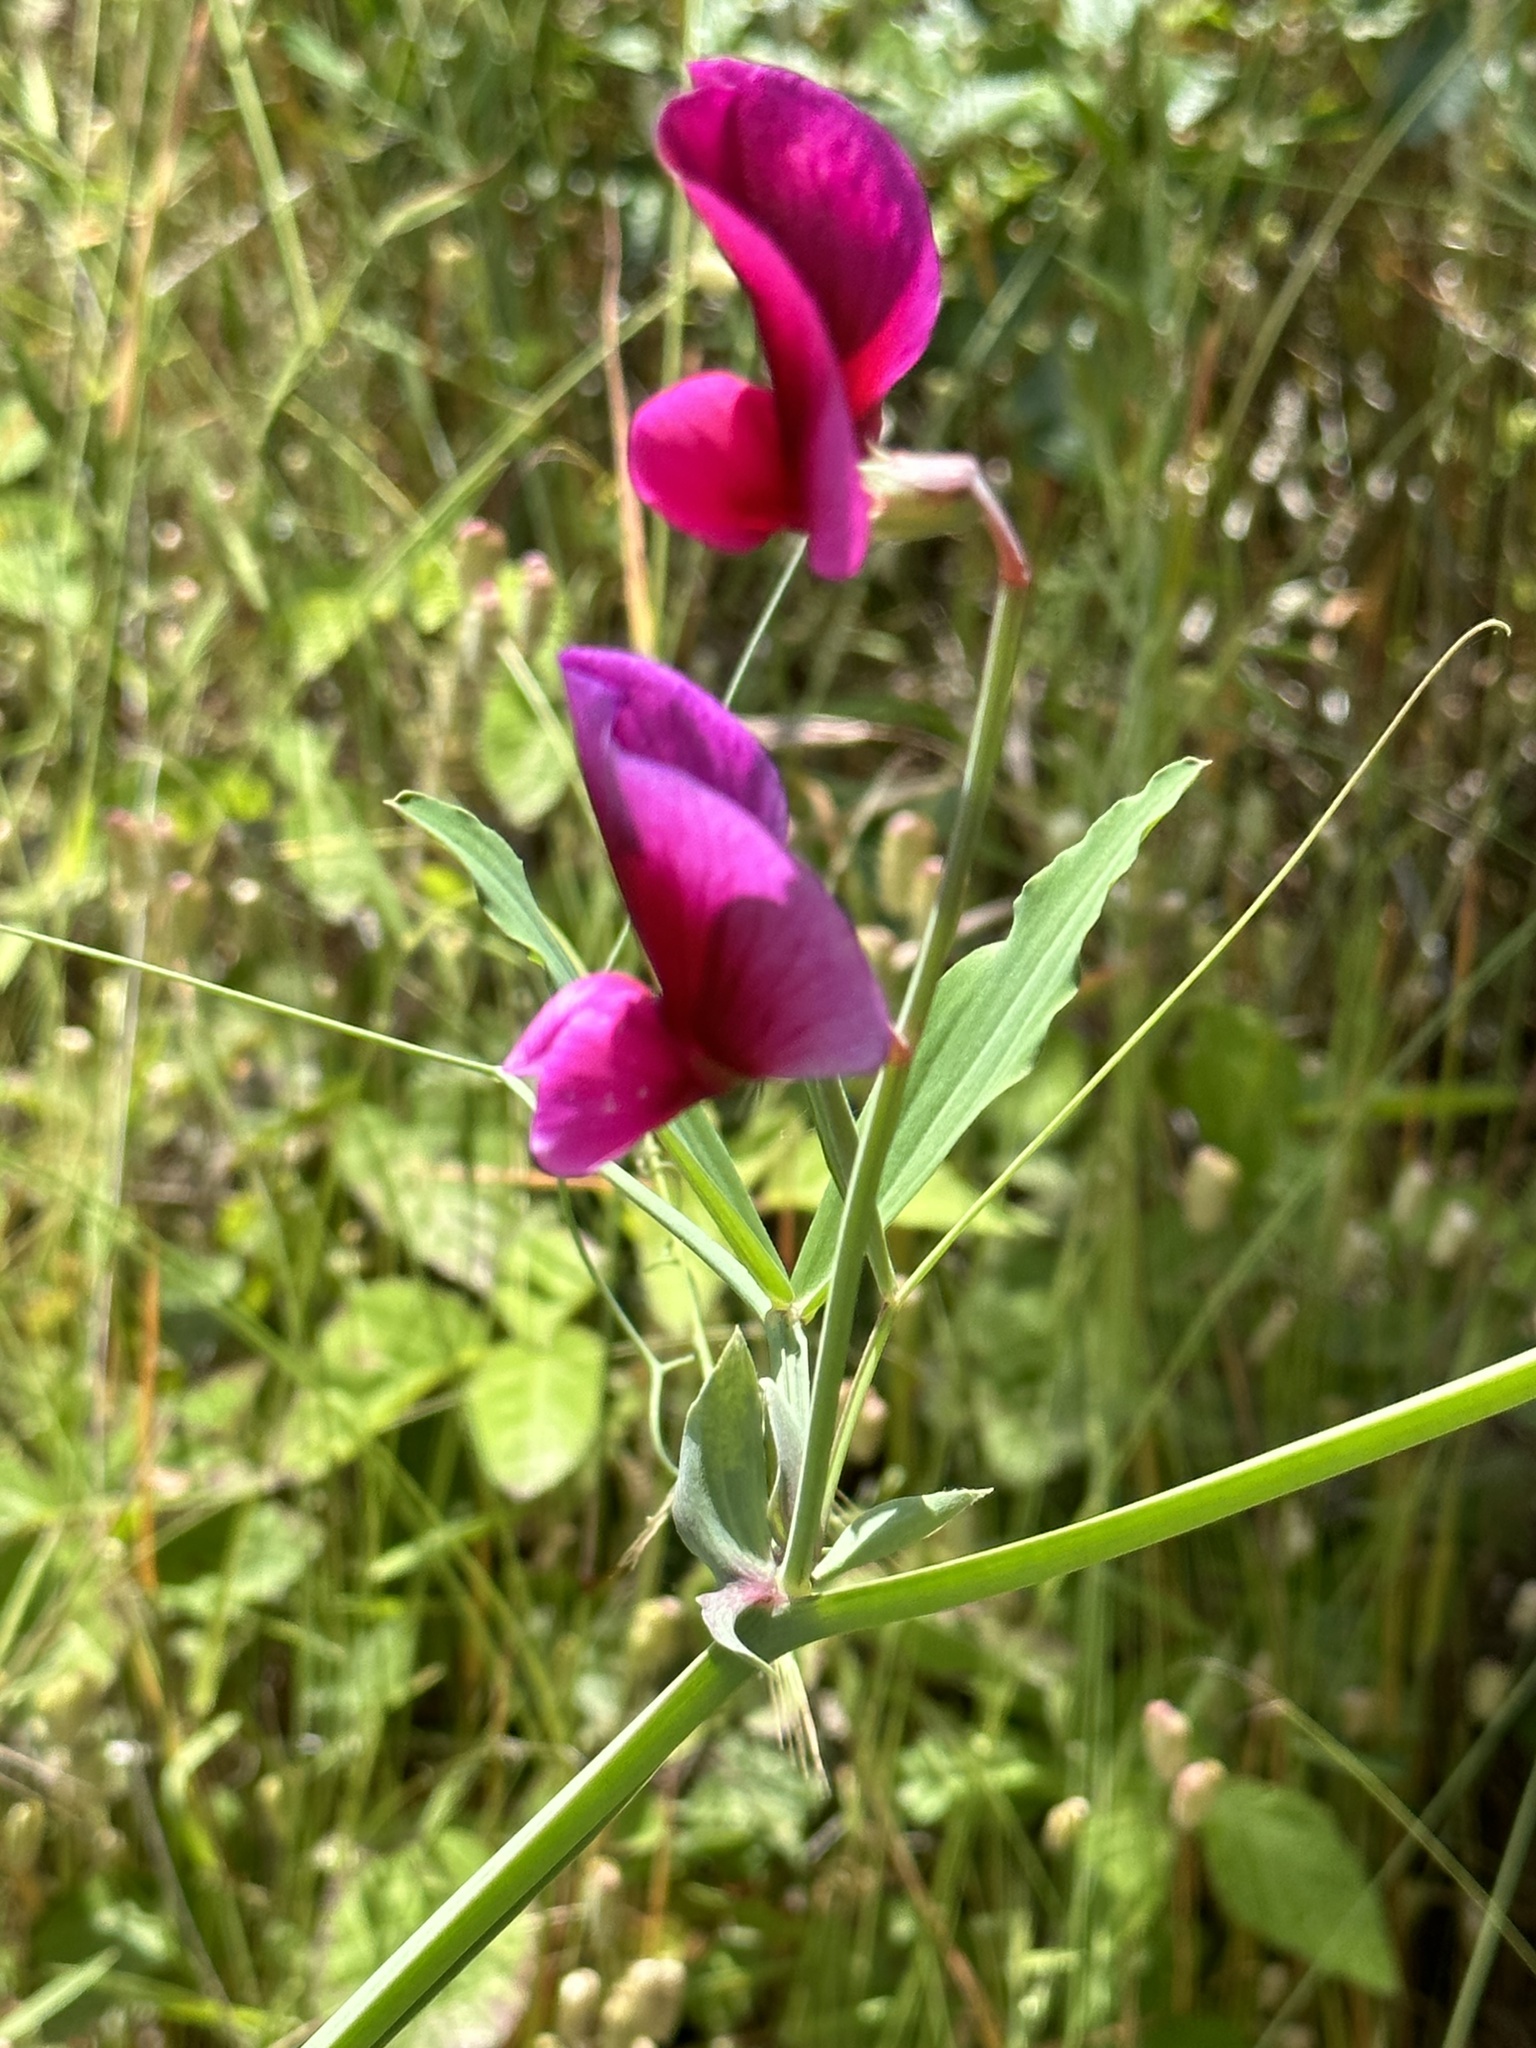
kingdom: Plantae
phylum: Tracheophyta
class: Magnoliopsida
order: Fabales
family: Fabaceae
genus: Lathyrus
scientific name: Lathyrus tingitanus
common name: Tangier pea
